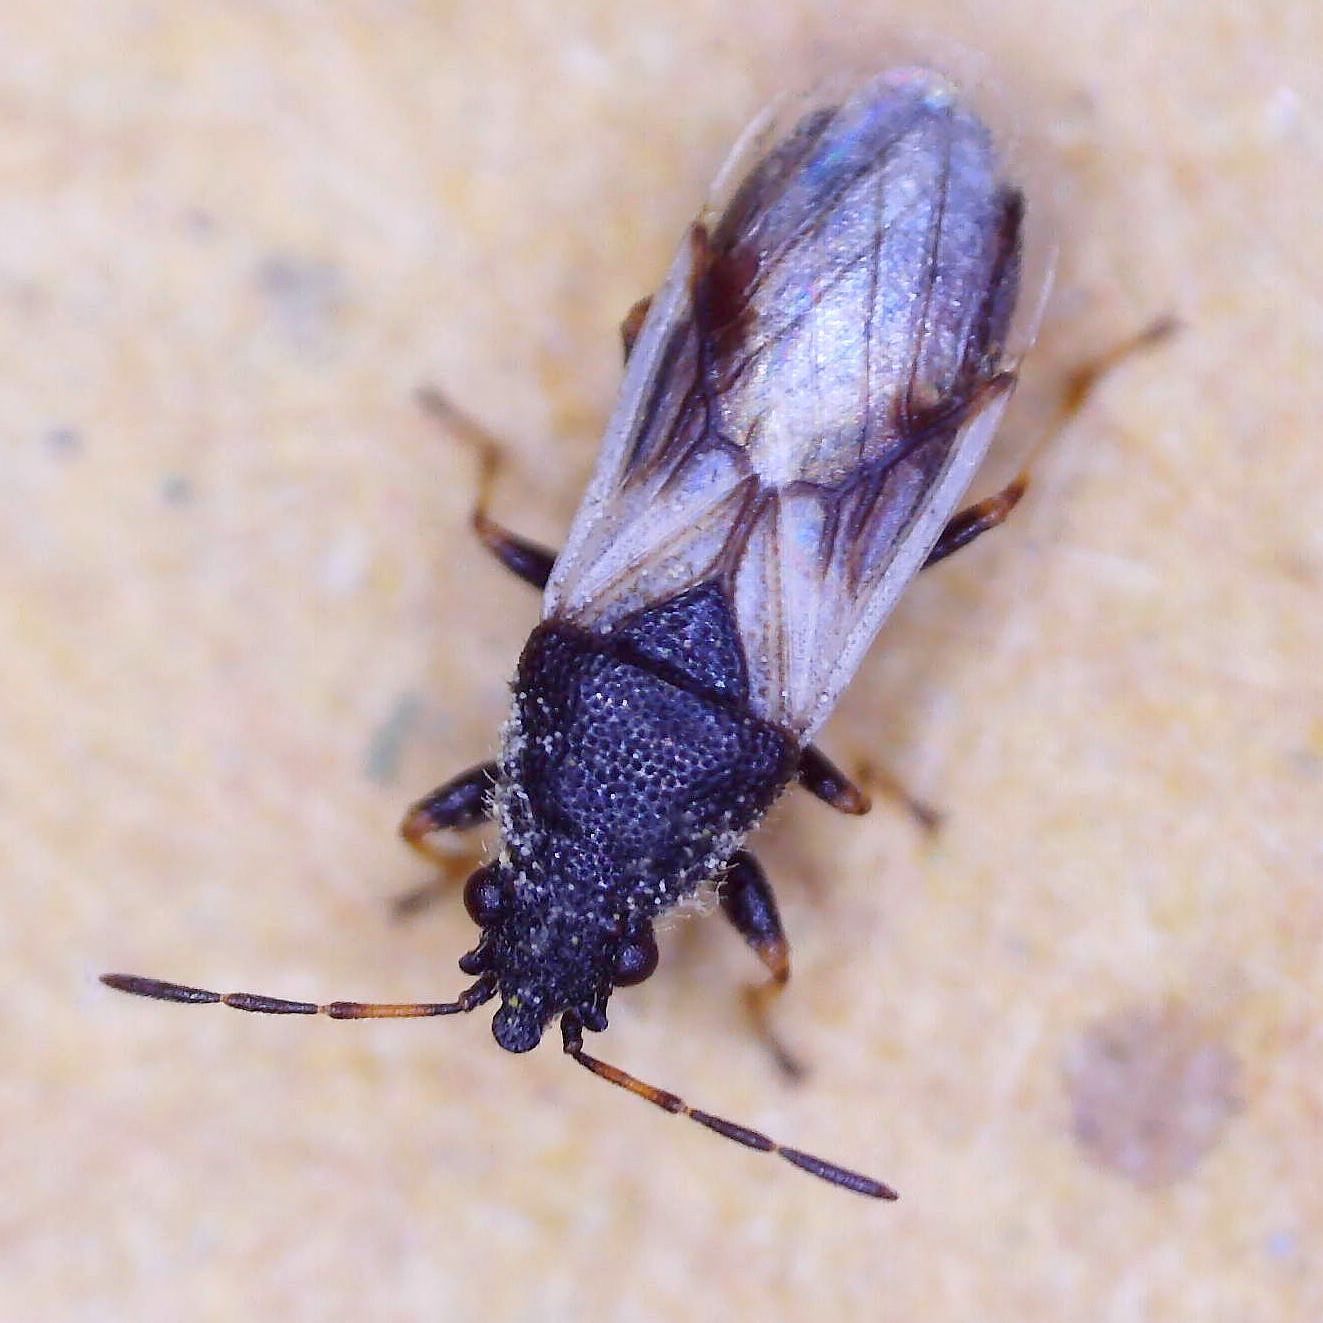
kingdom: Animalia
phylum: Arthropoda
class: Insecta
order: Hemiptera
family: Oxycarenidae
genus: Metopoplax
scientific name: Metopoplax ditomoides
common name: Seed bug
